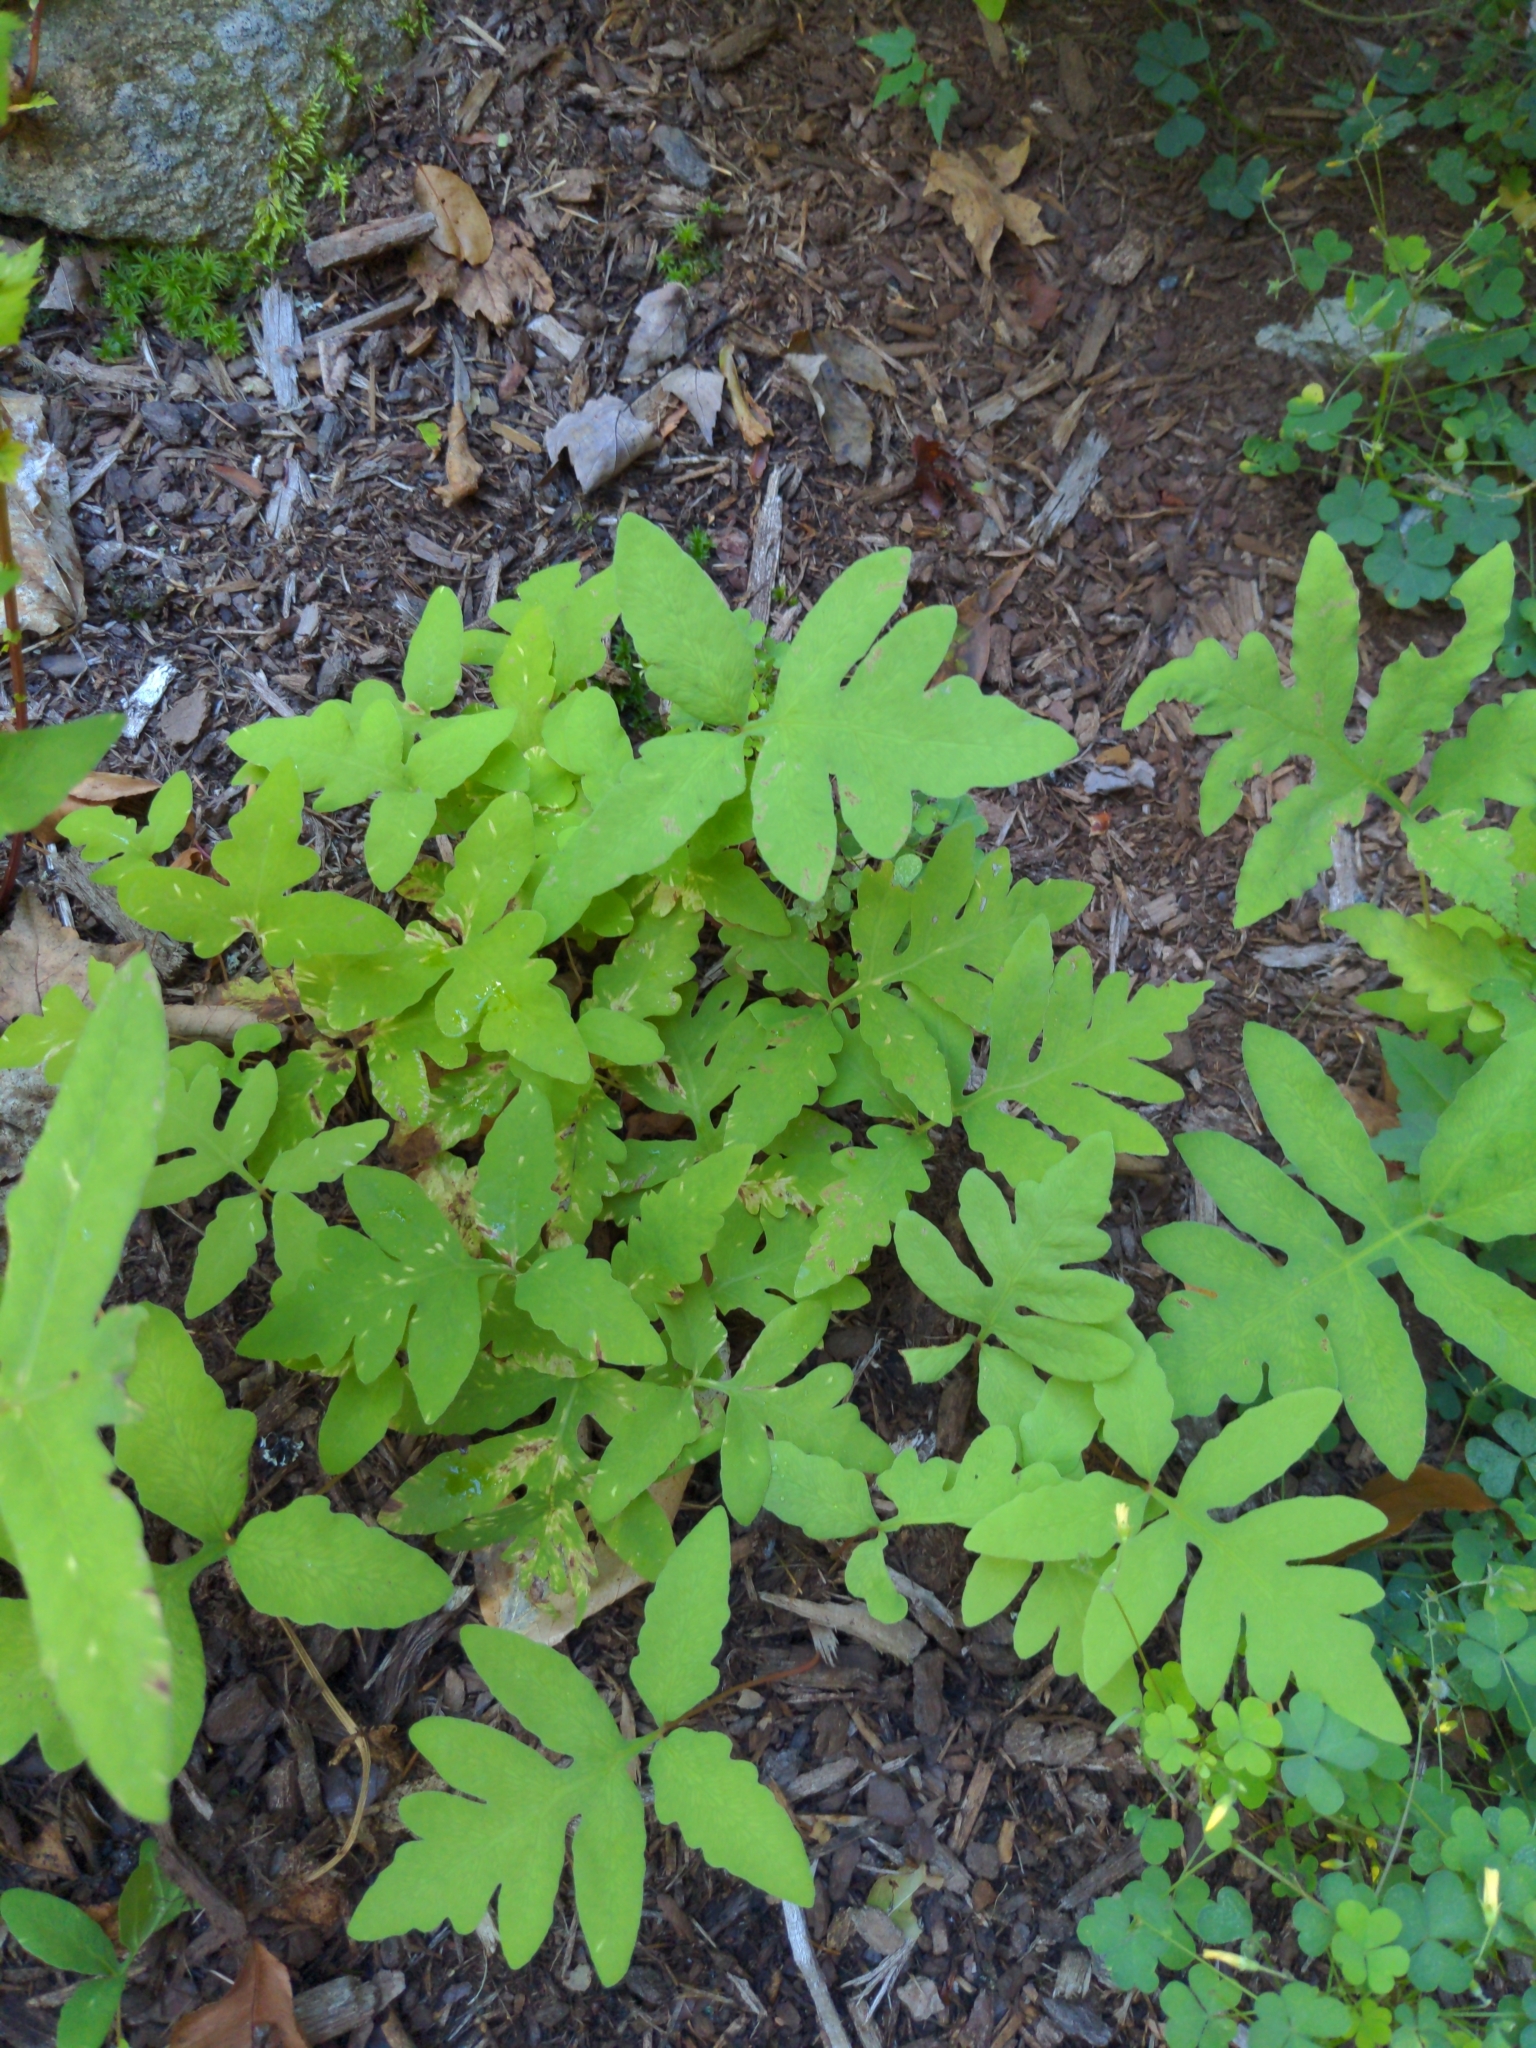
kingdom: Plantae
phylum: Tracheophyta
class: Polypodiopsida
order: Polypodiales
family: Onocleaceae
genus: Onoclea
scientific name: Onoclea sensibilis
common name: Sensitive fern
